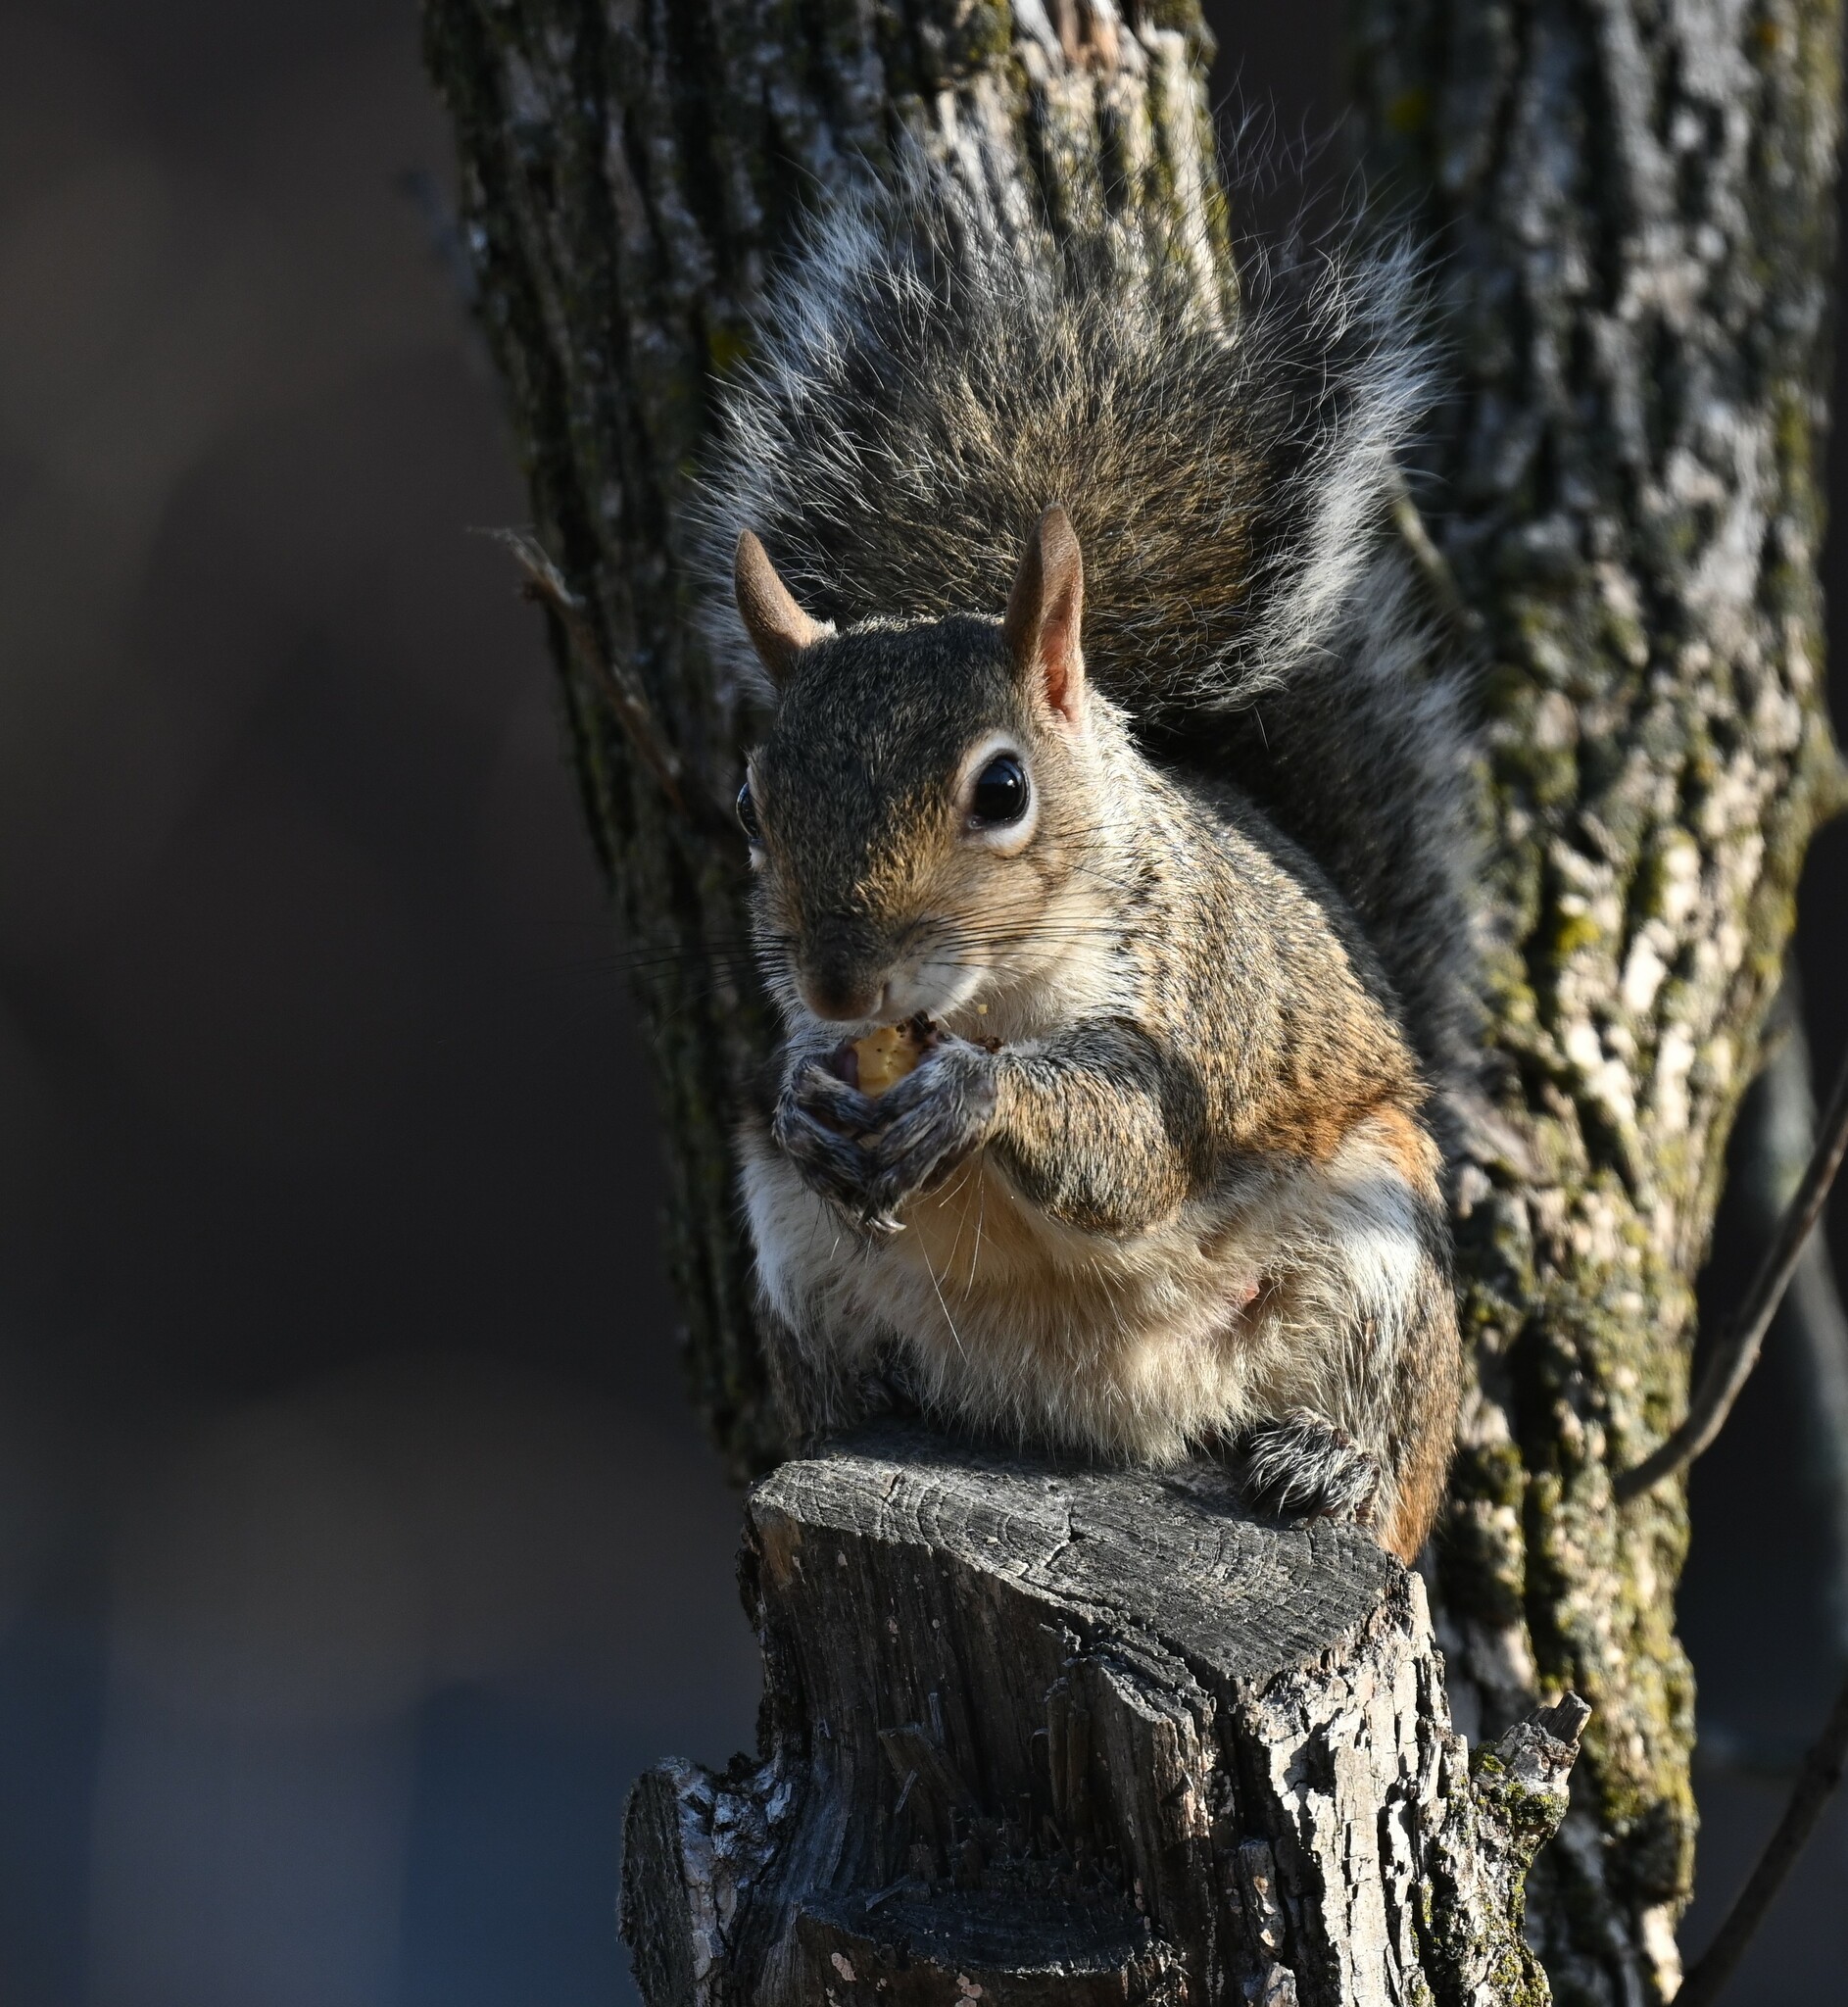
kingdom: Animalia
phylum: Chordata
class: Mammalia
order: Rodentia
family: Sciuridae
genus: Sciurus
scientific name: Sciurus carolinensis
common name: Eastern gray squirrel
